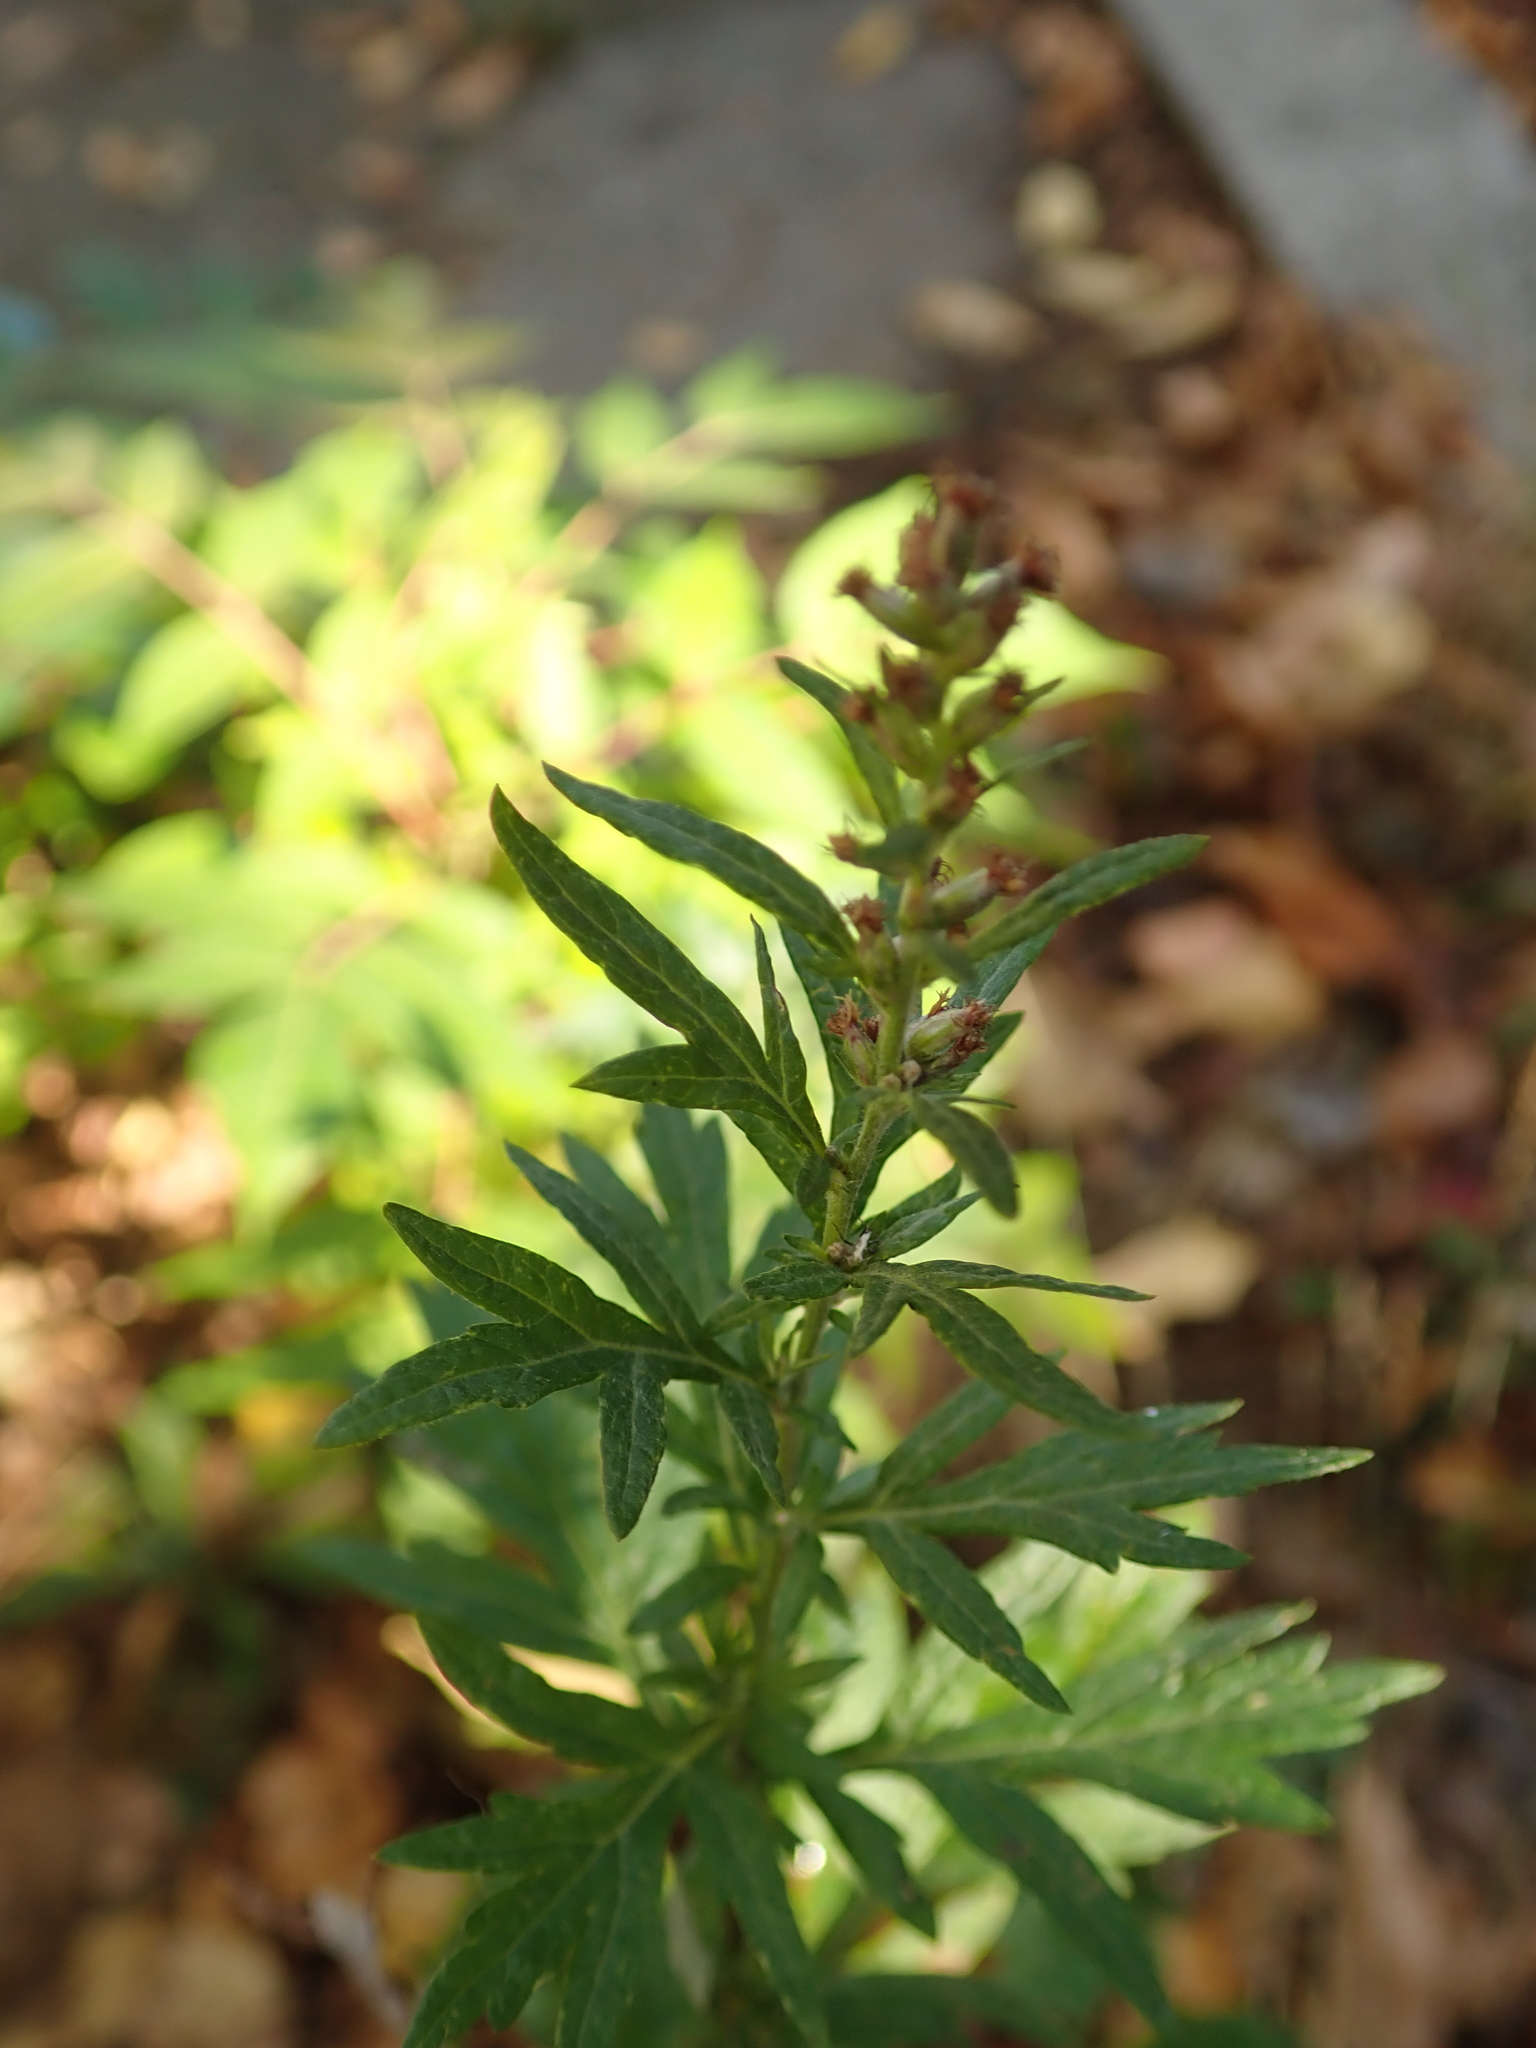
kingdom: Plantae
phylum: Tracheophyta
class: Magnoliopsida
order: Asterales
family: Asteraceae
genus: Artemisia
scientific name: Artemisia vulgaris
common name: Mugwort
